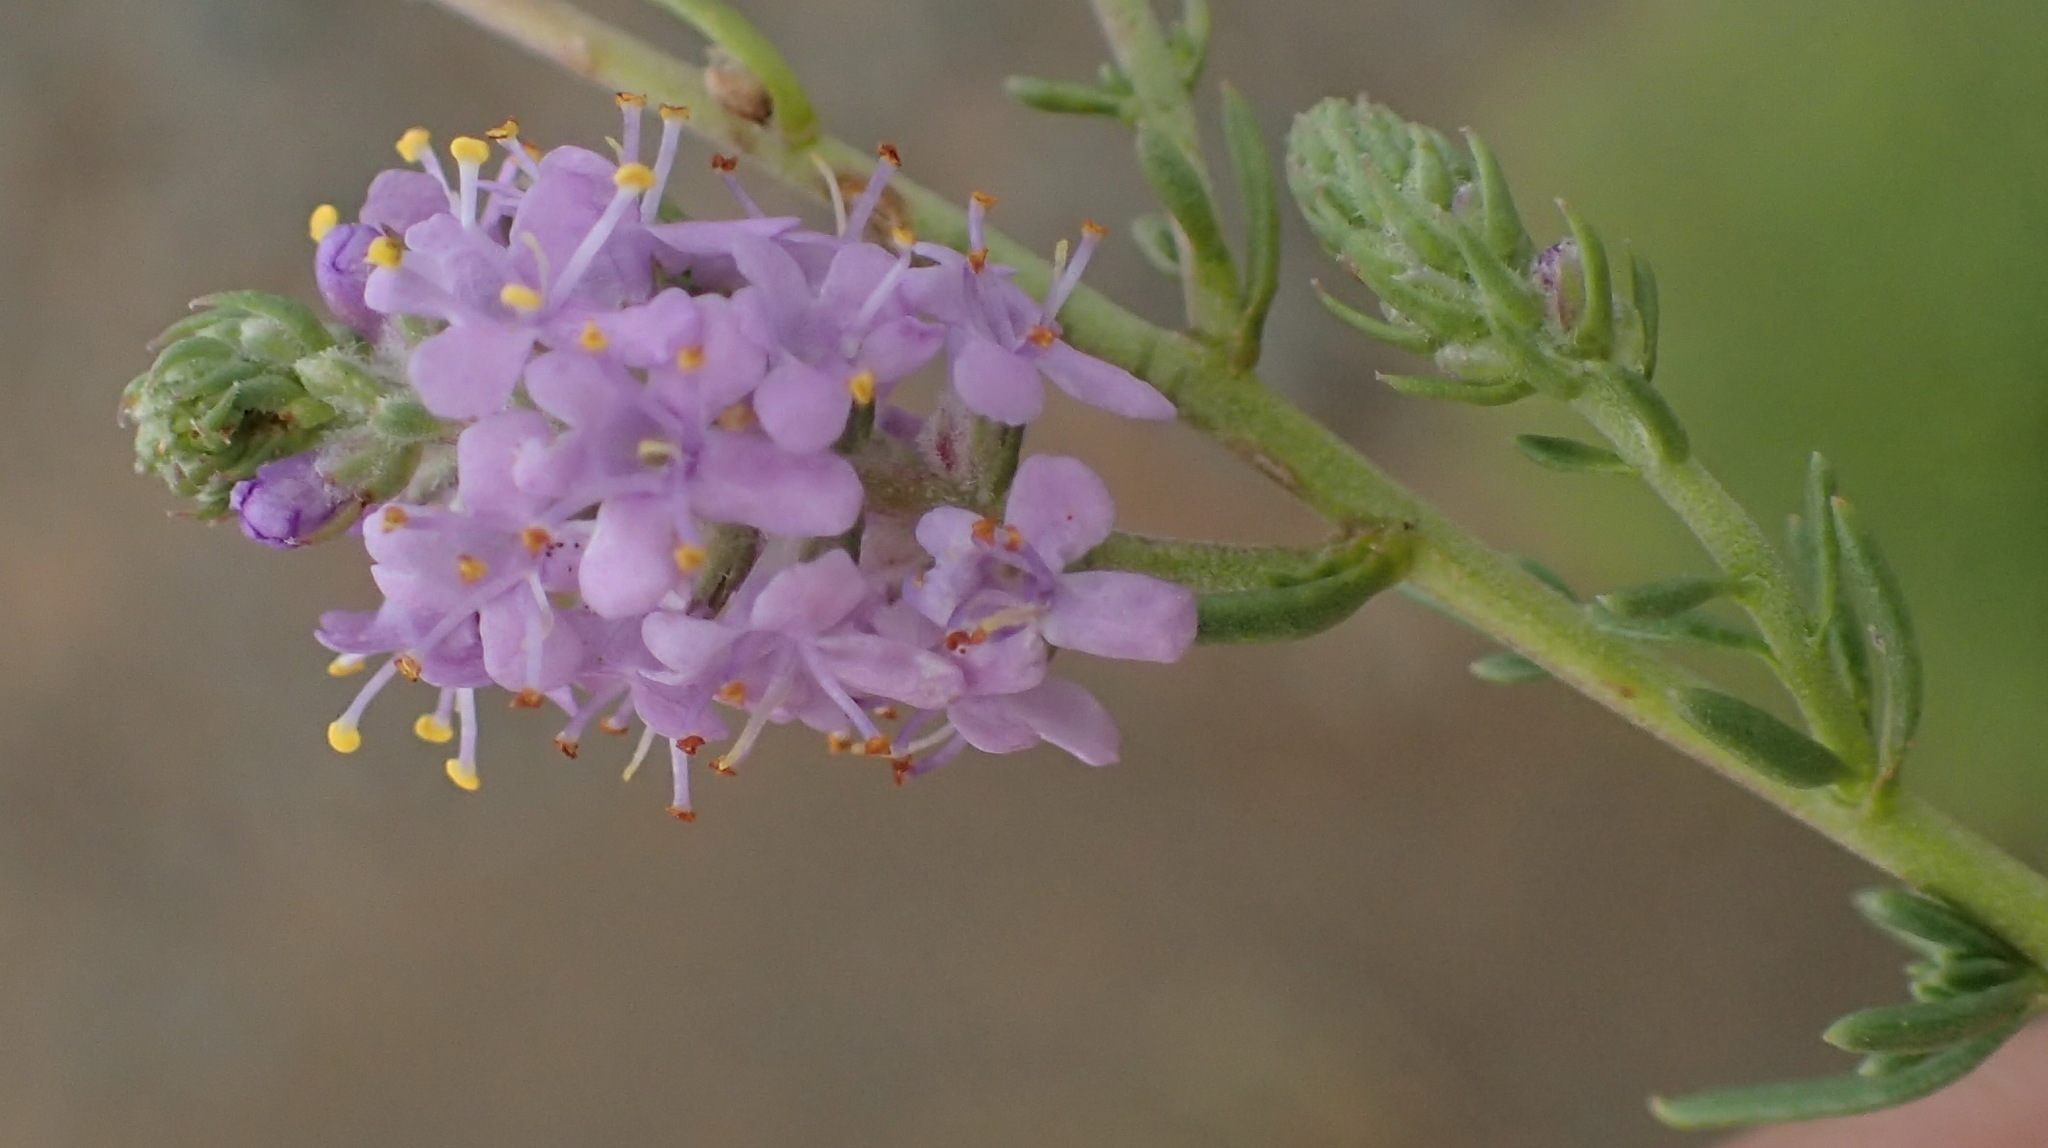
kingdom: Plantae
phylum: Tracheophyta
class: Magnoliopsida
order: Lamiales
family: Scrophulariaceae
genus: Selago
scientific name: Selago geniculata
